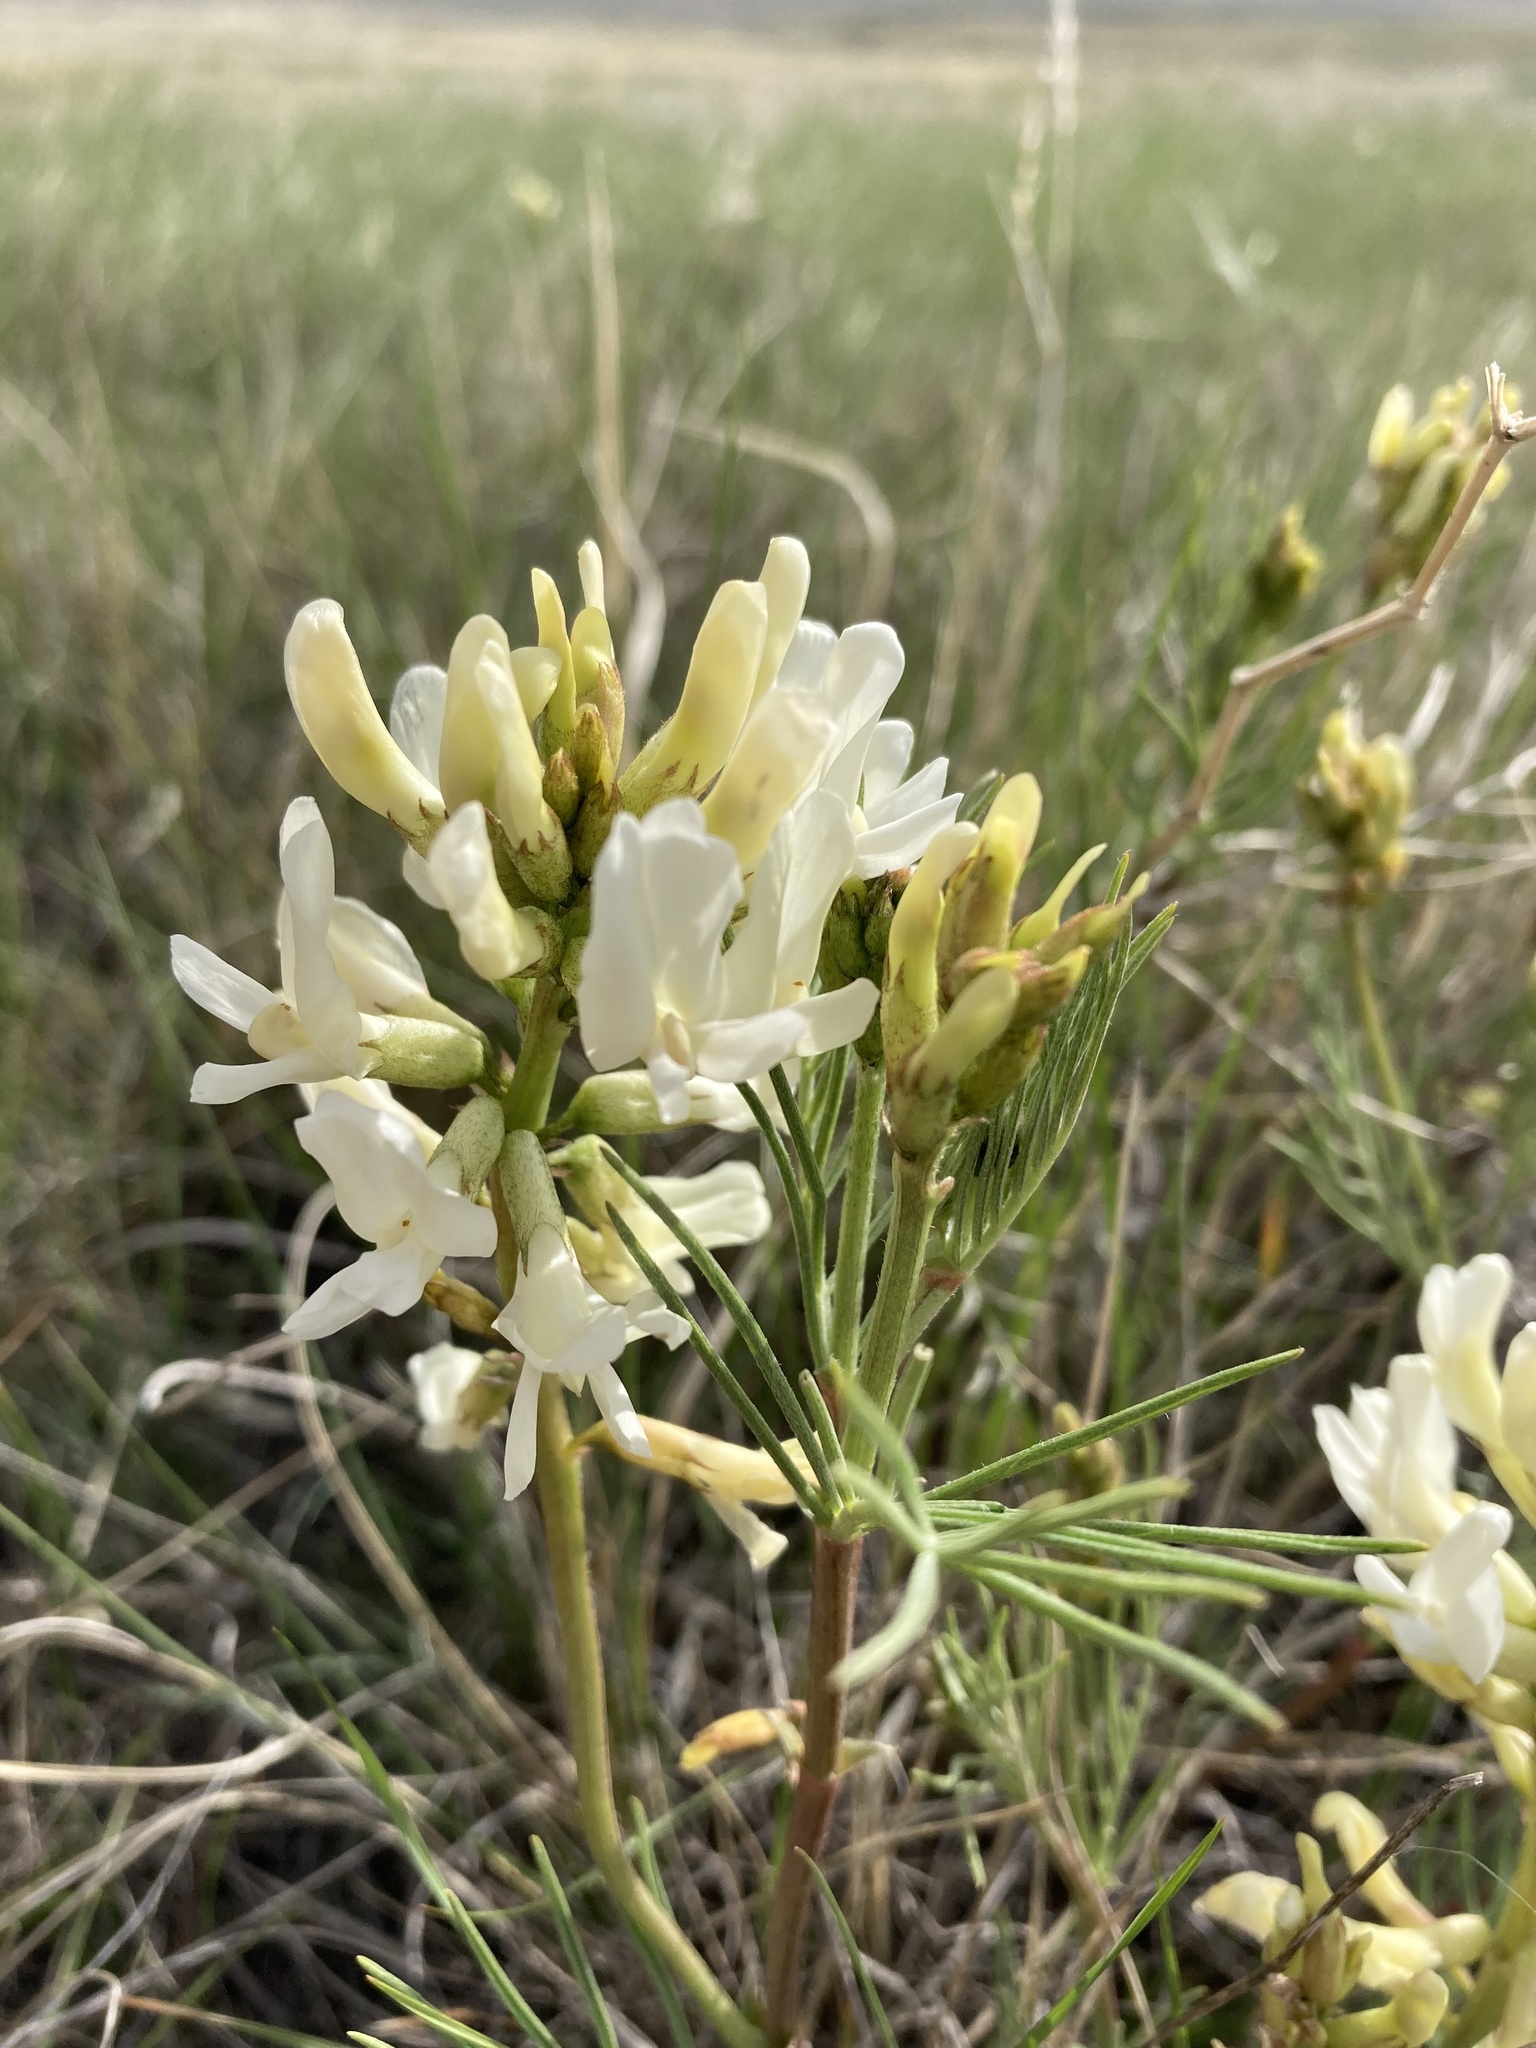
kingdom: Plantae
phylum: Tracheophyta
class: Magnoliopsida
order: Fabales
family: Fabaceae
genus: Astragalus
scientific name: Astragalus pectinatus
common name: Tine-leaf milk-vetch
